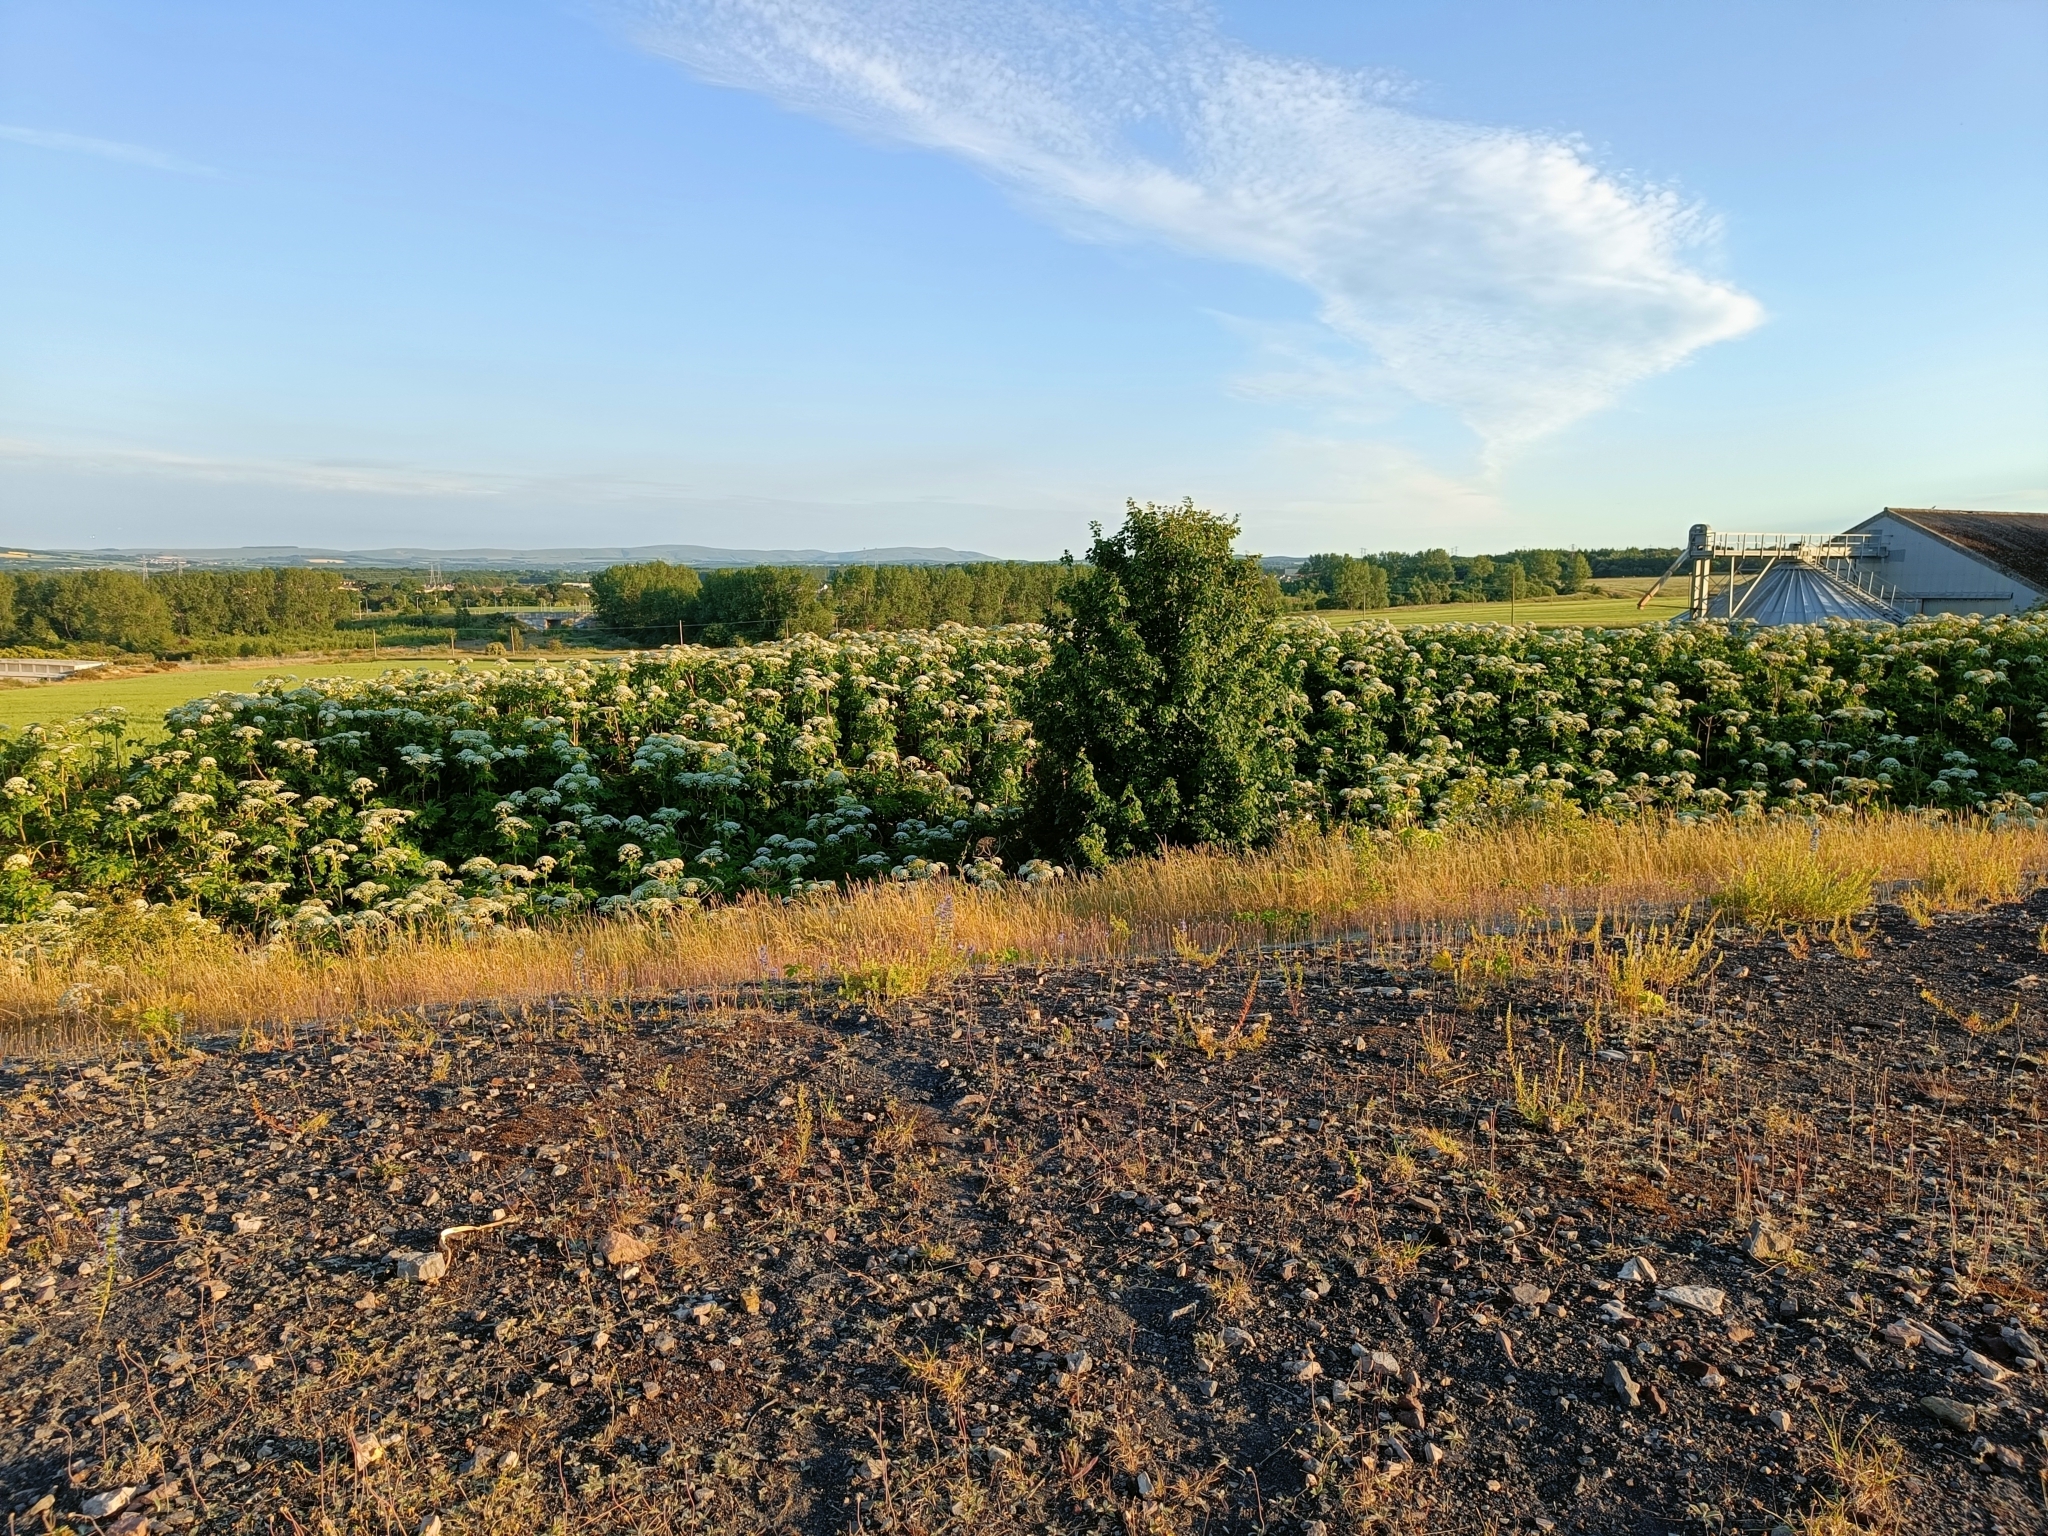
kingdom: Plantae
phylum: Tracheophyta
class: Magnoliopsida
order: Apiales
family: Apiaceae
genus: Heracleum
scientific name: Heracleum mantegazzianum
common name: Giant hogweed
